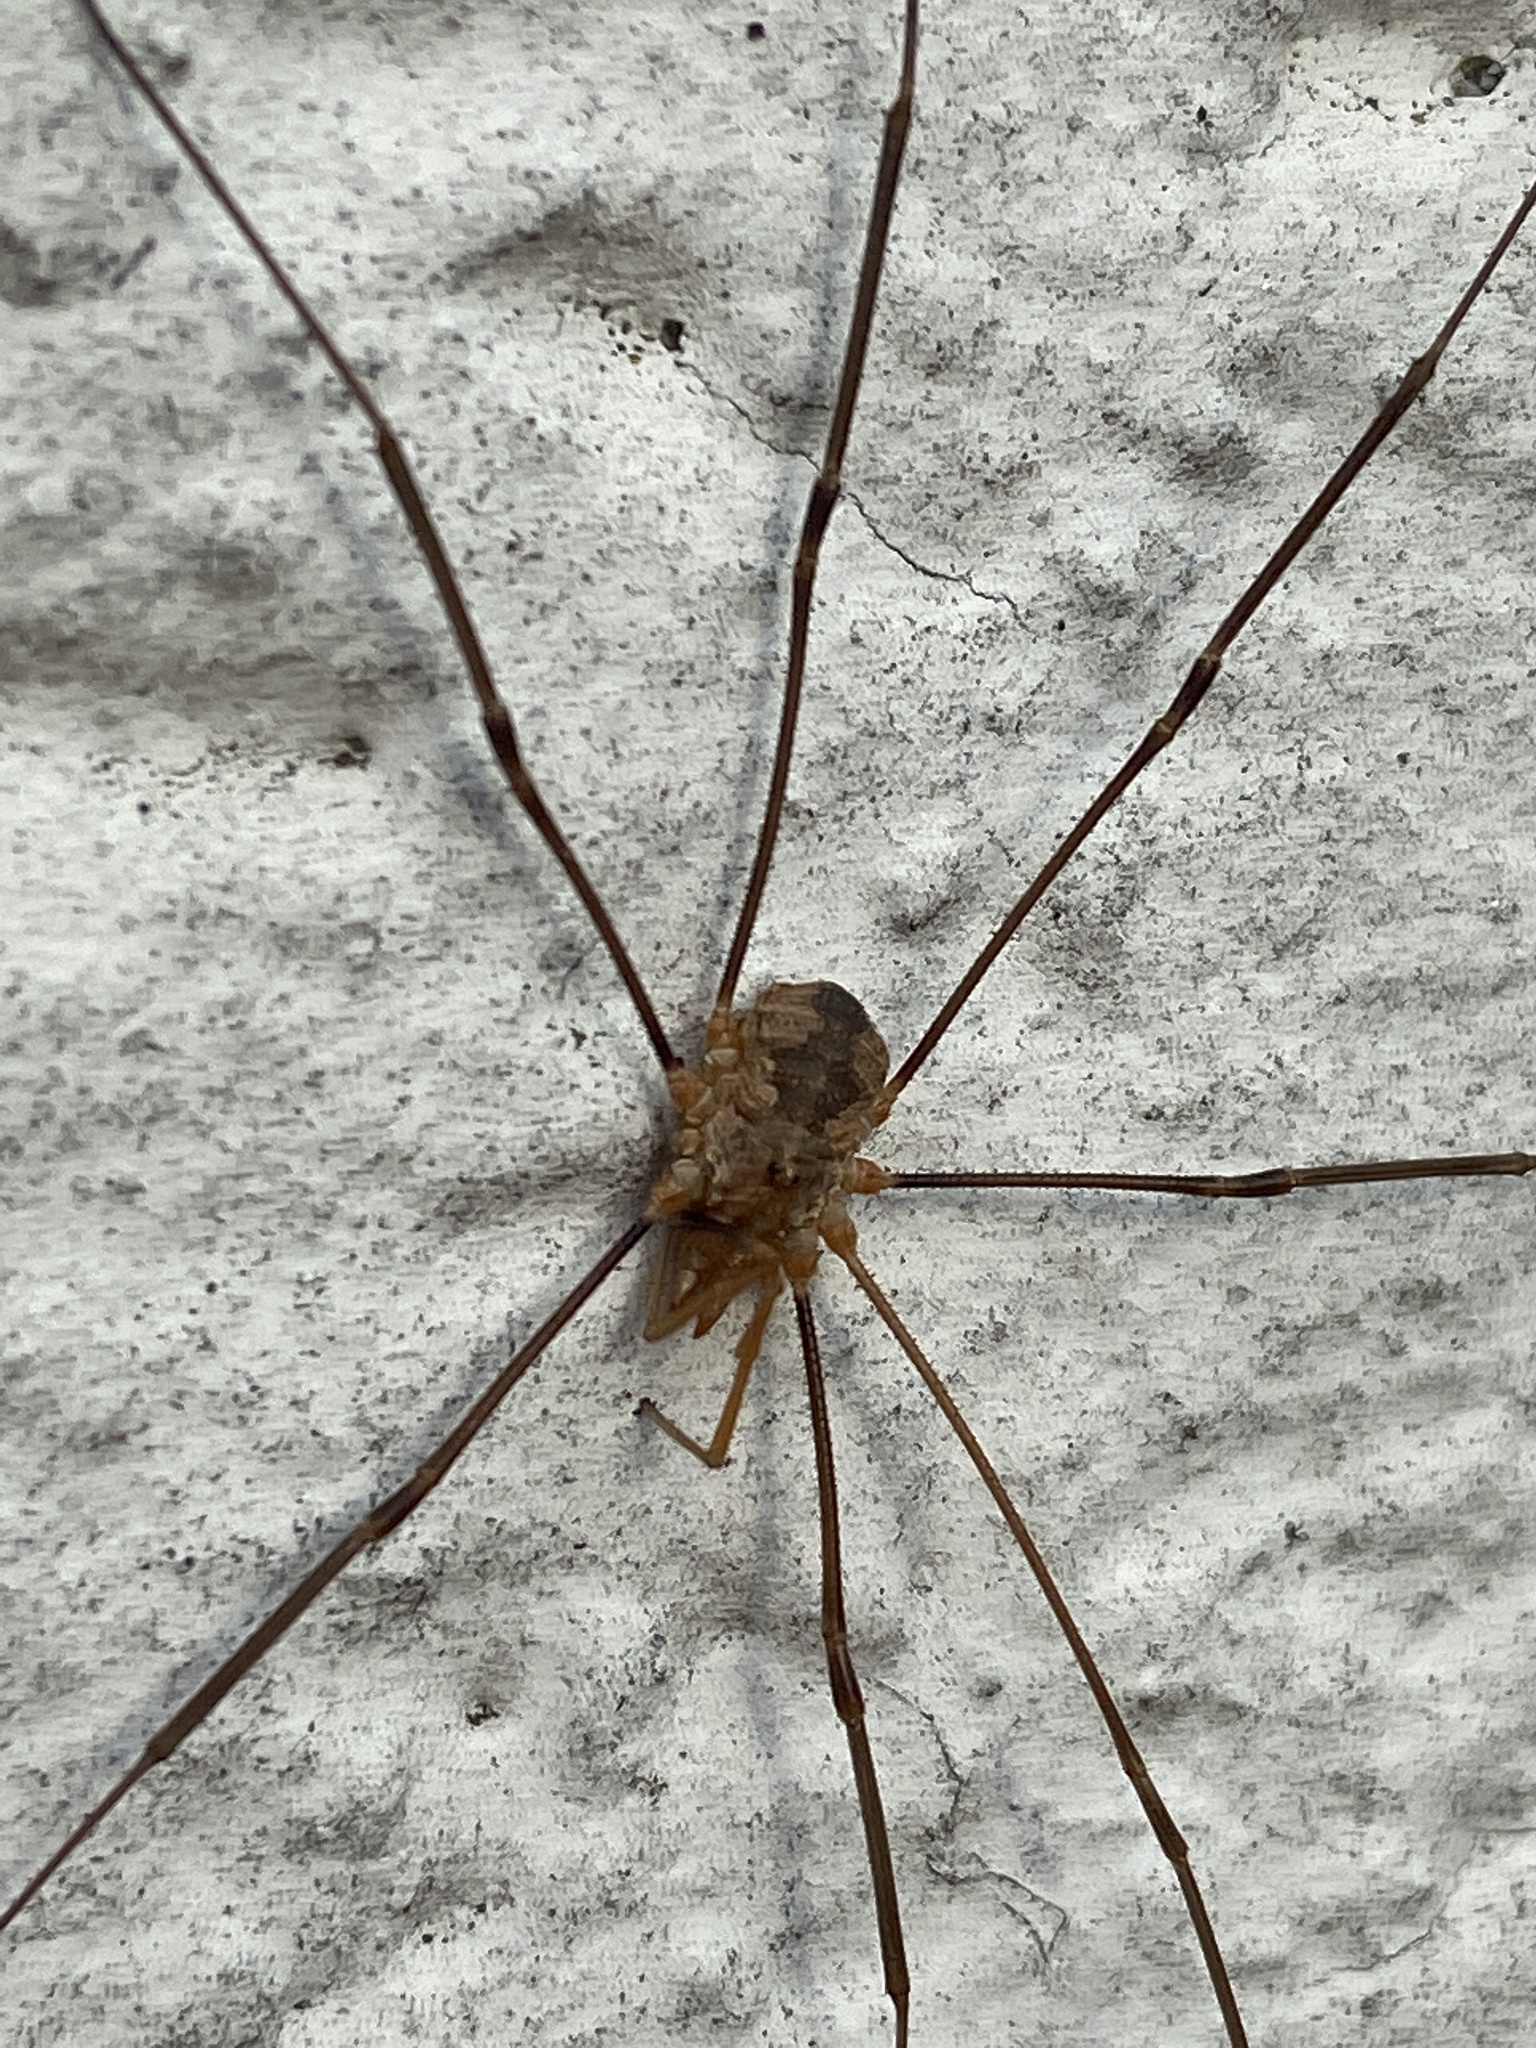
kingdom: Animalia
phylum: Arthropoda
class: Arachnida
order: Opiliones
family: Phalangiidae
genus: Phalangium
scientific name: Phalangium opilio
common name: Daddy longleg
